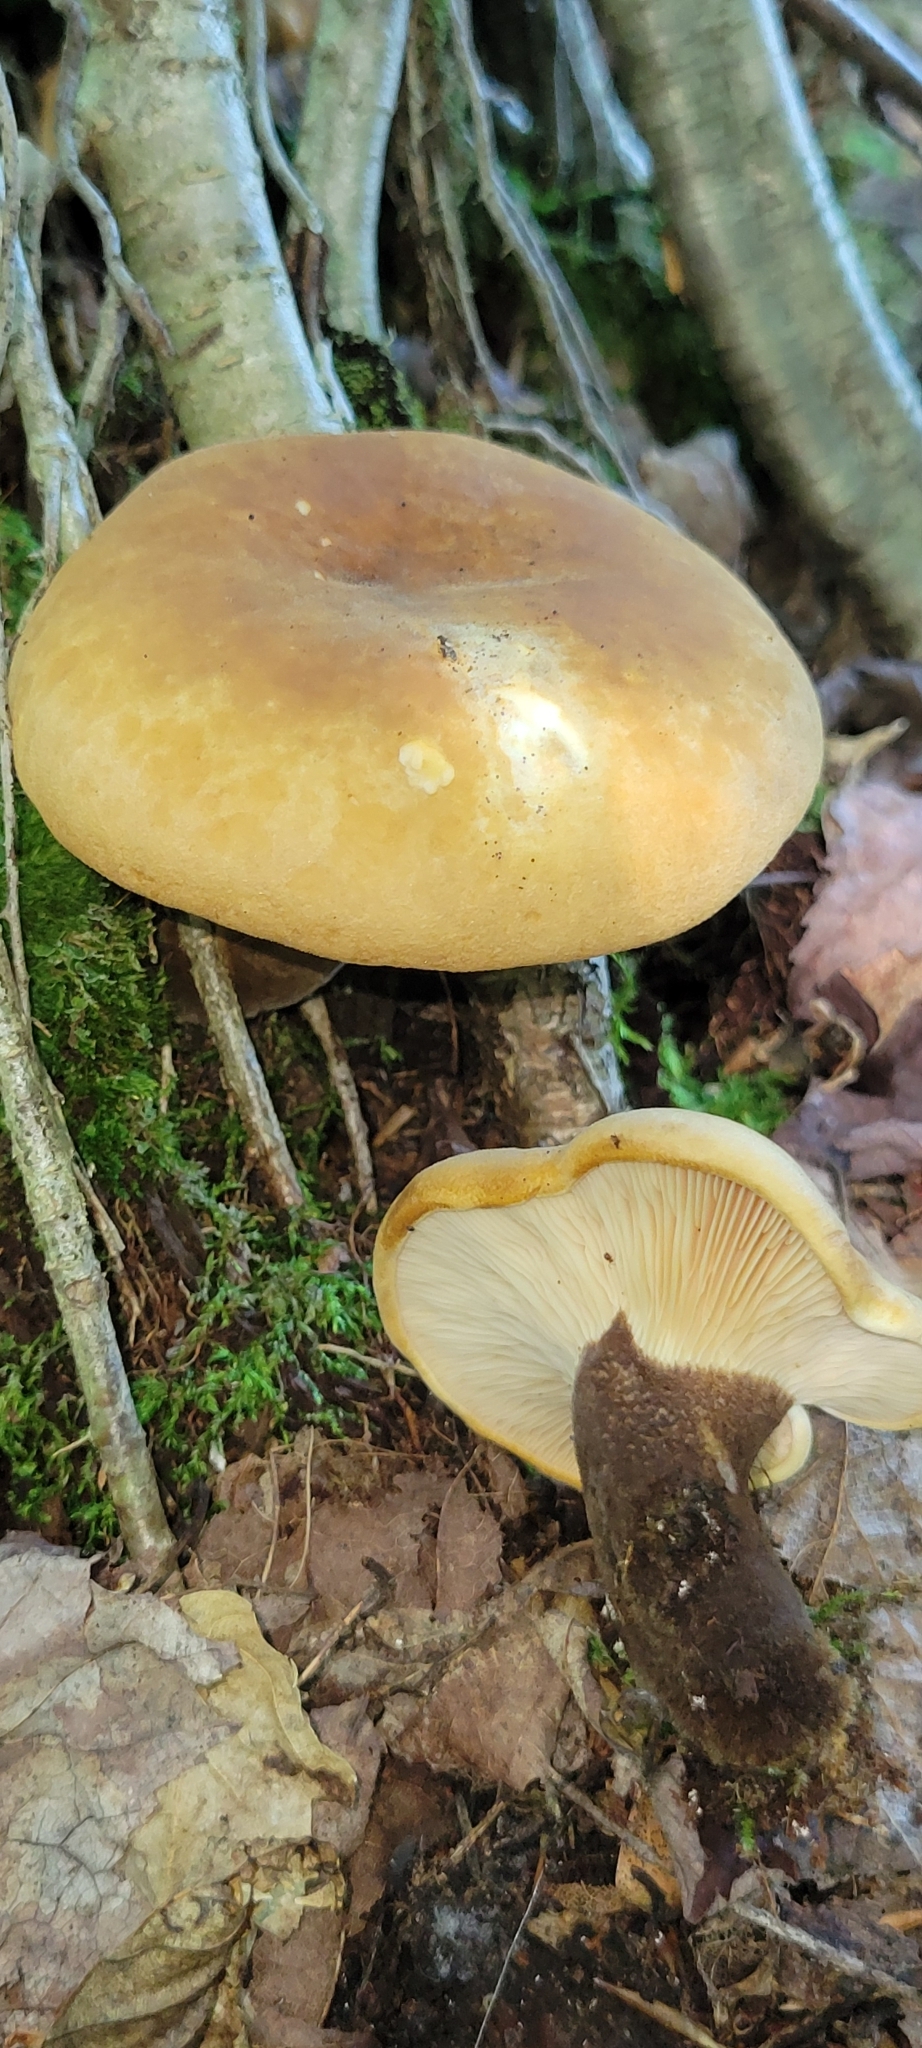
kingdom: Fungi
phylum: Basidiomycota
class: Agaricomycetes
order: Boletales
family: Tapinellaceae
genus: Tapinella
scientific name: Tapinella atrotomentosa
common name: Velvet rollrim
